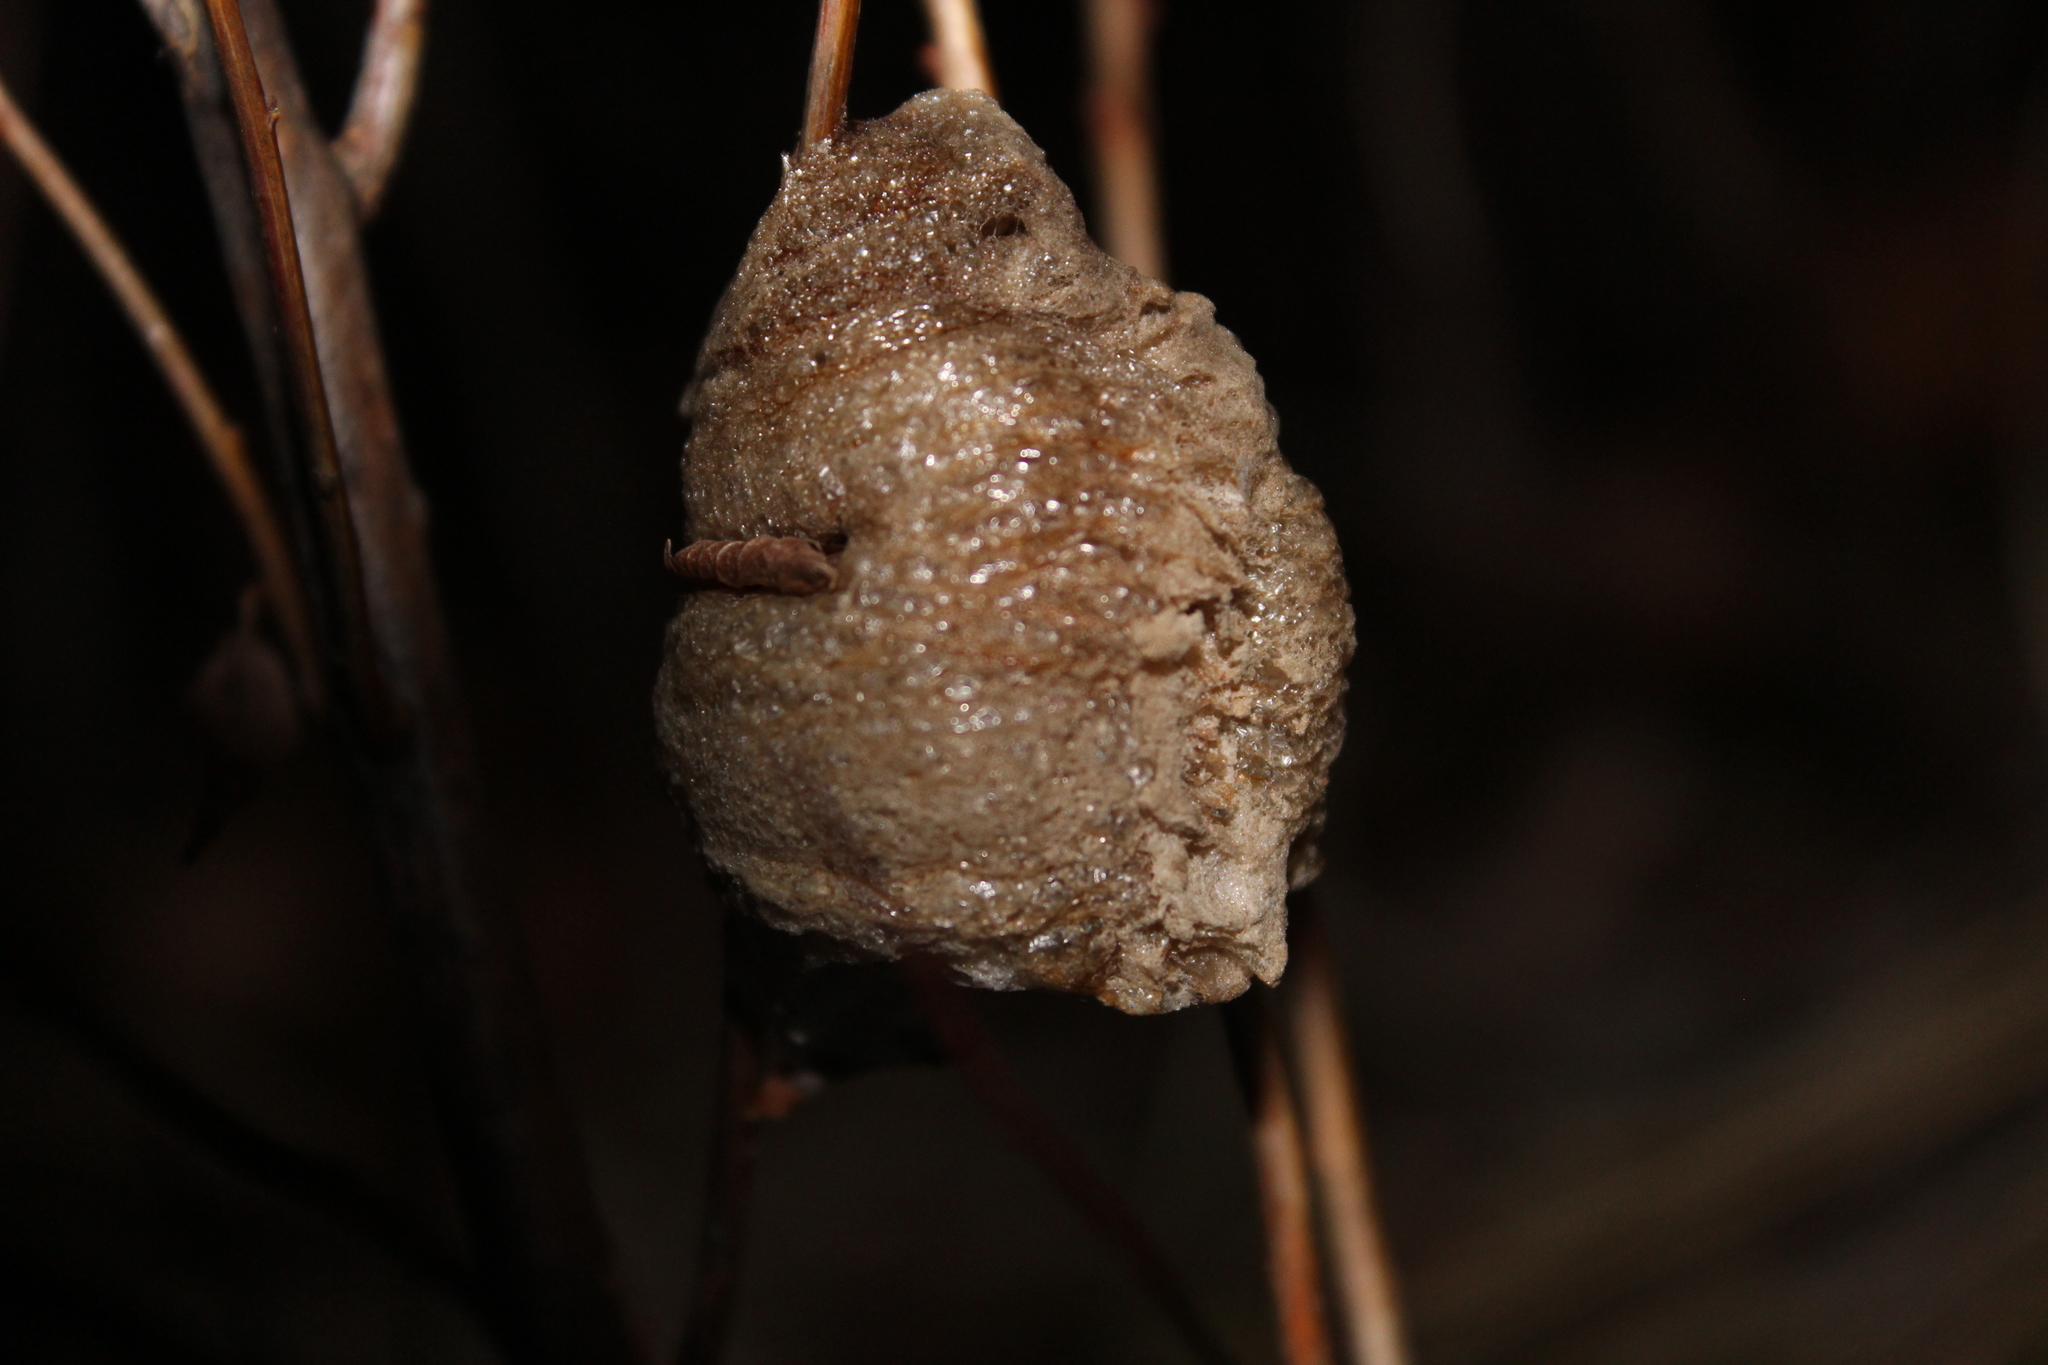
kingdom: Animalia
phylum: Arthropoda
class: Insecta
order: Mantodea
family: Mantidae
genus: Tenodera
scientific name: Tenodera sinensis
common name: Chinese mantis
